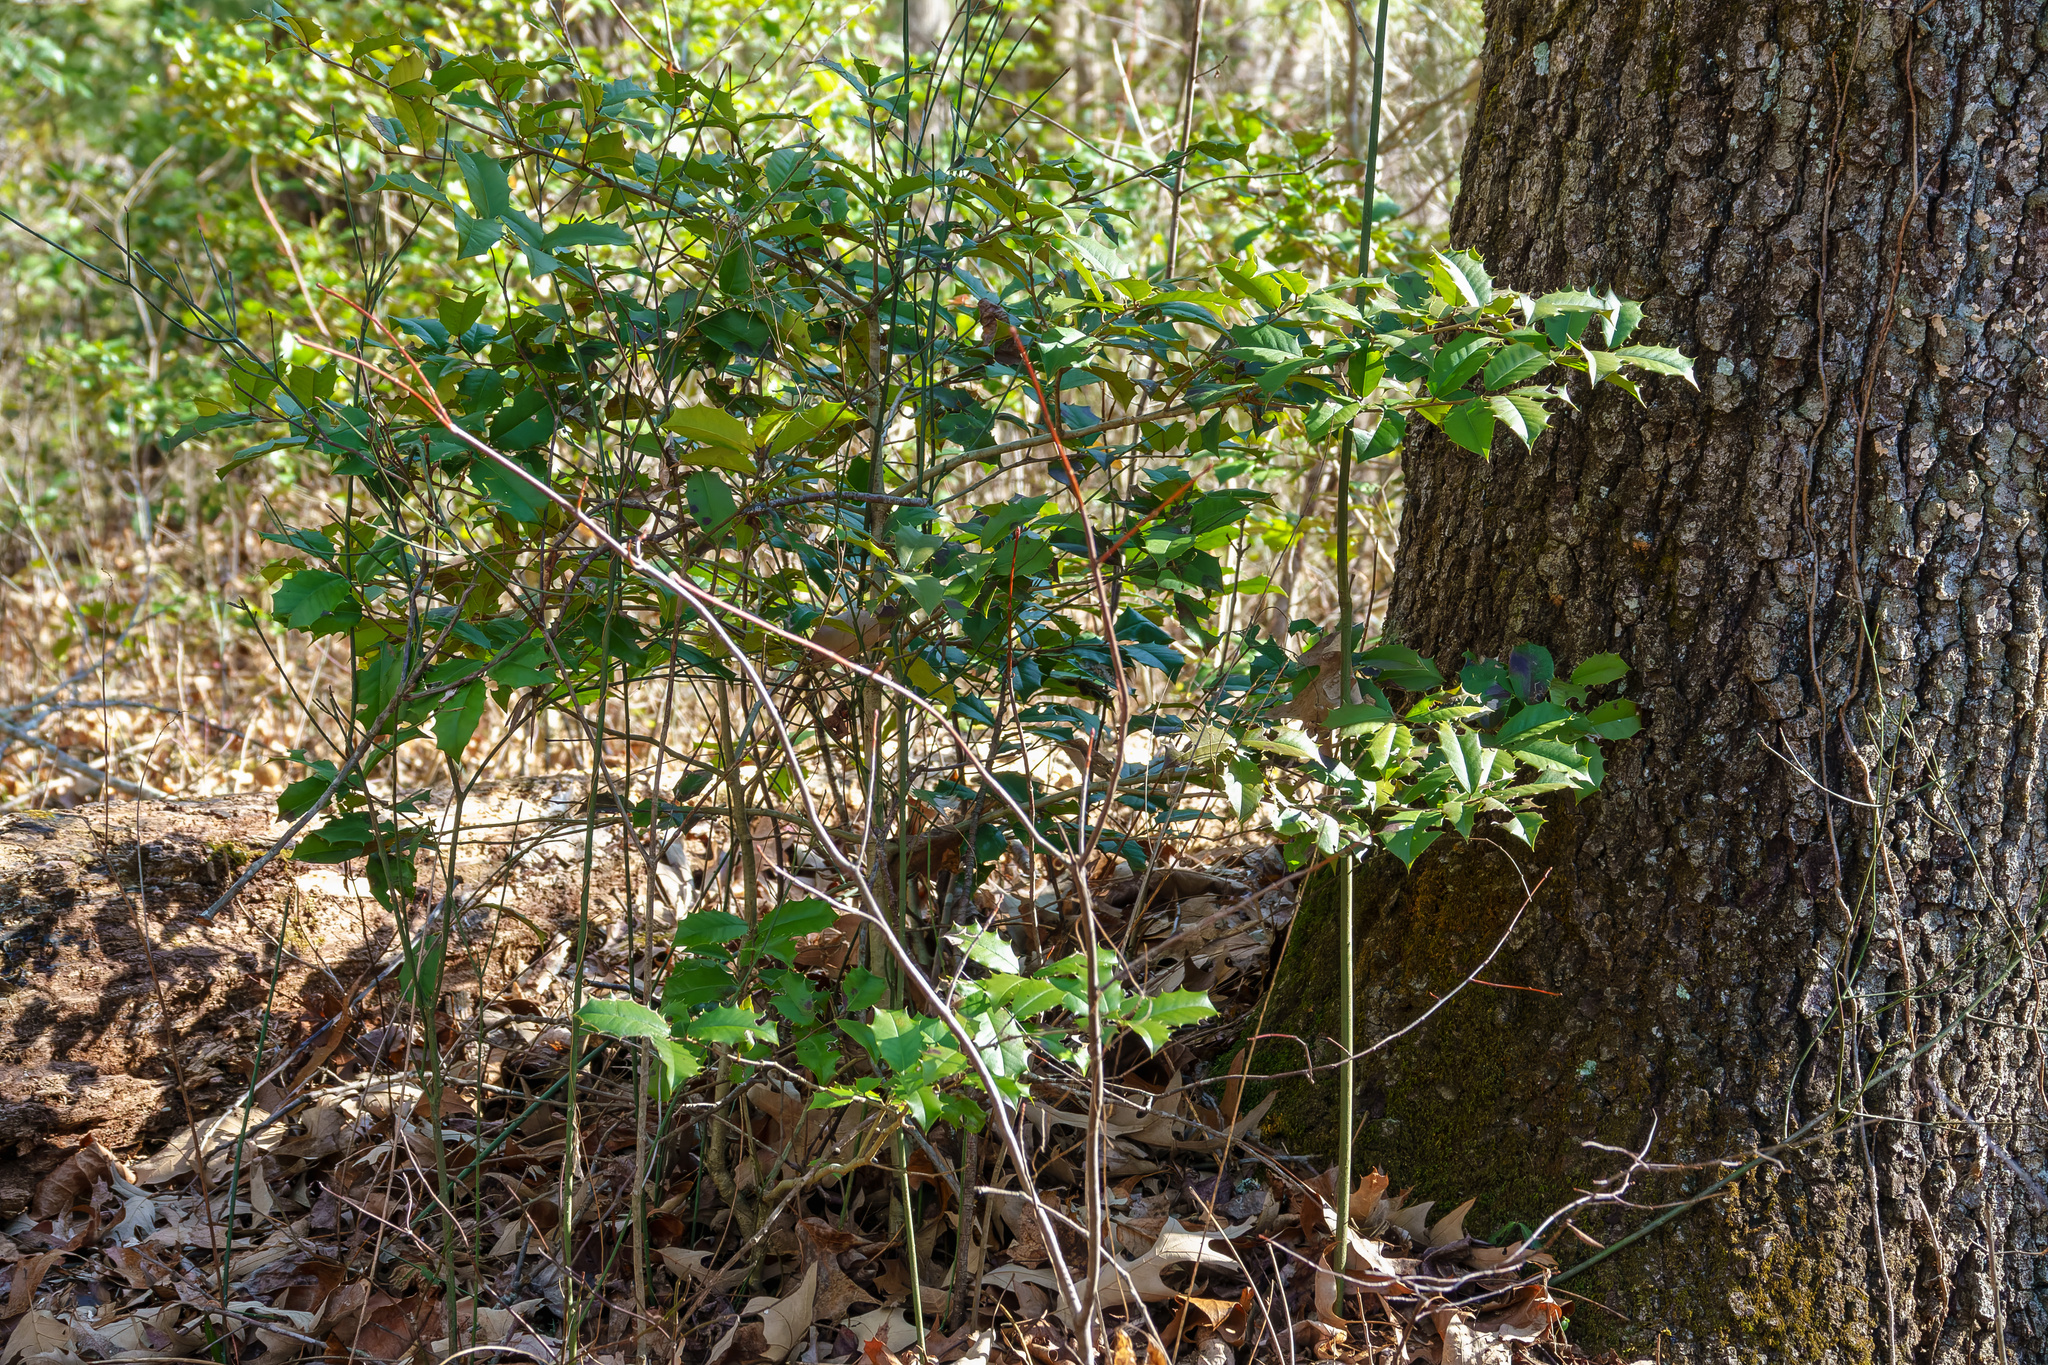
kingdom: Plantae
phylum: Tracheophyta
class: Magnoliopsida
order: Aquifoliales
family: Aquifoliaceae
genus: Ilex
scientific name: Ilex opaca
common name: American holly
